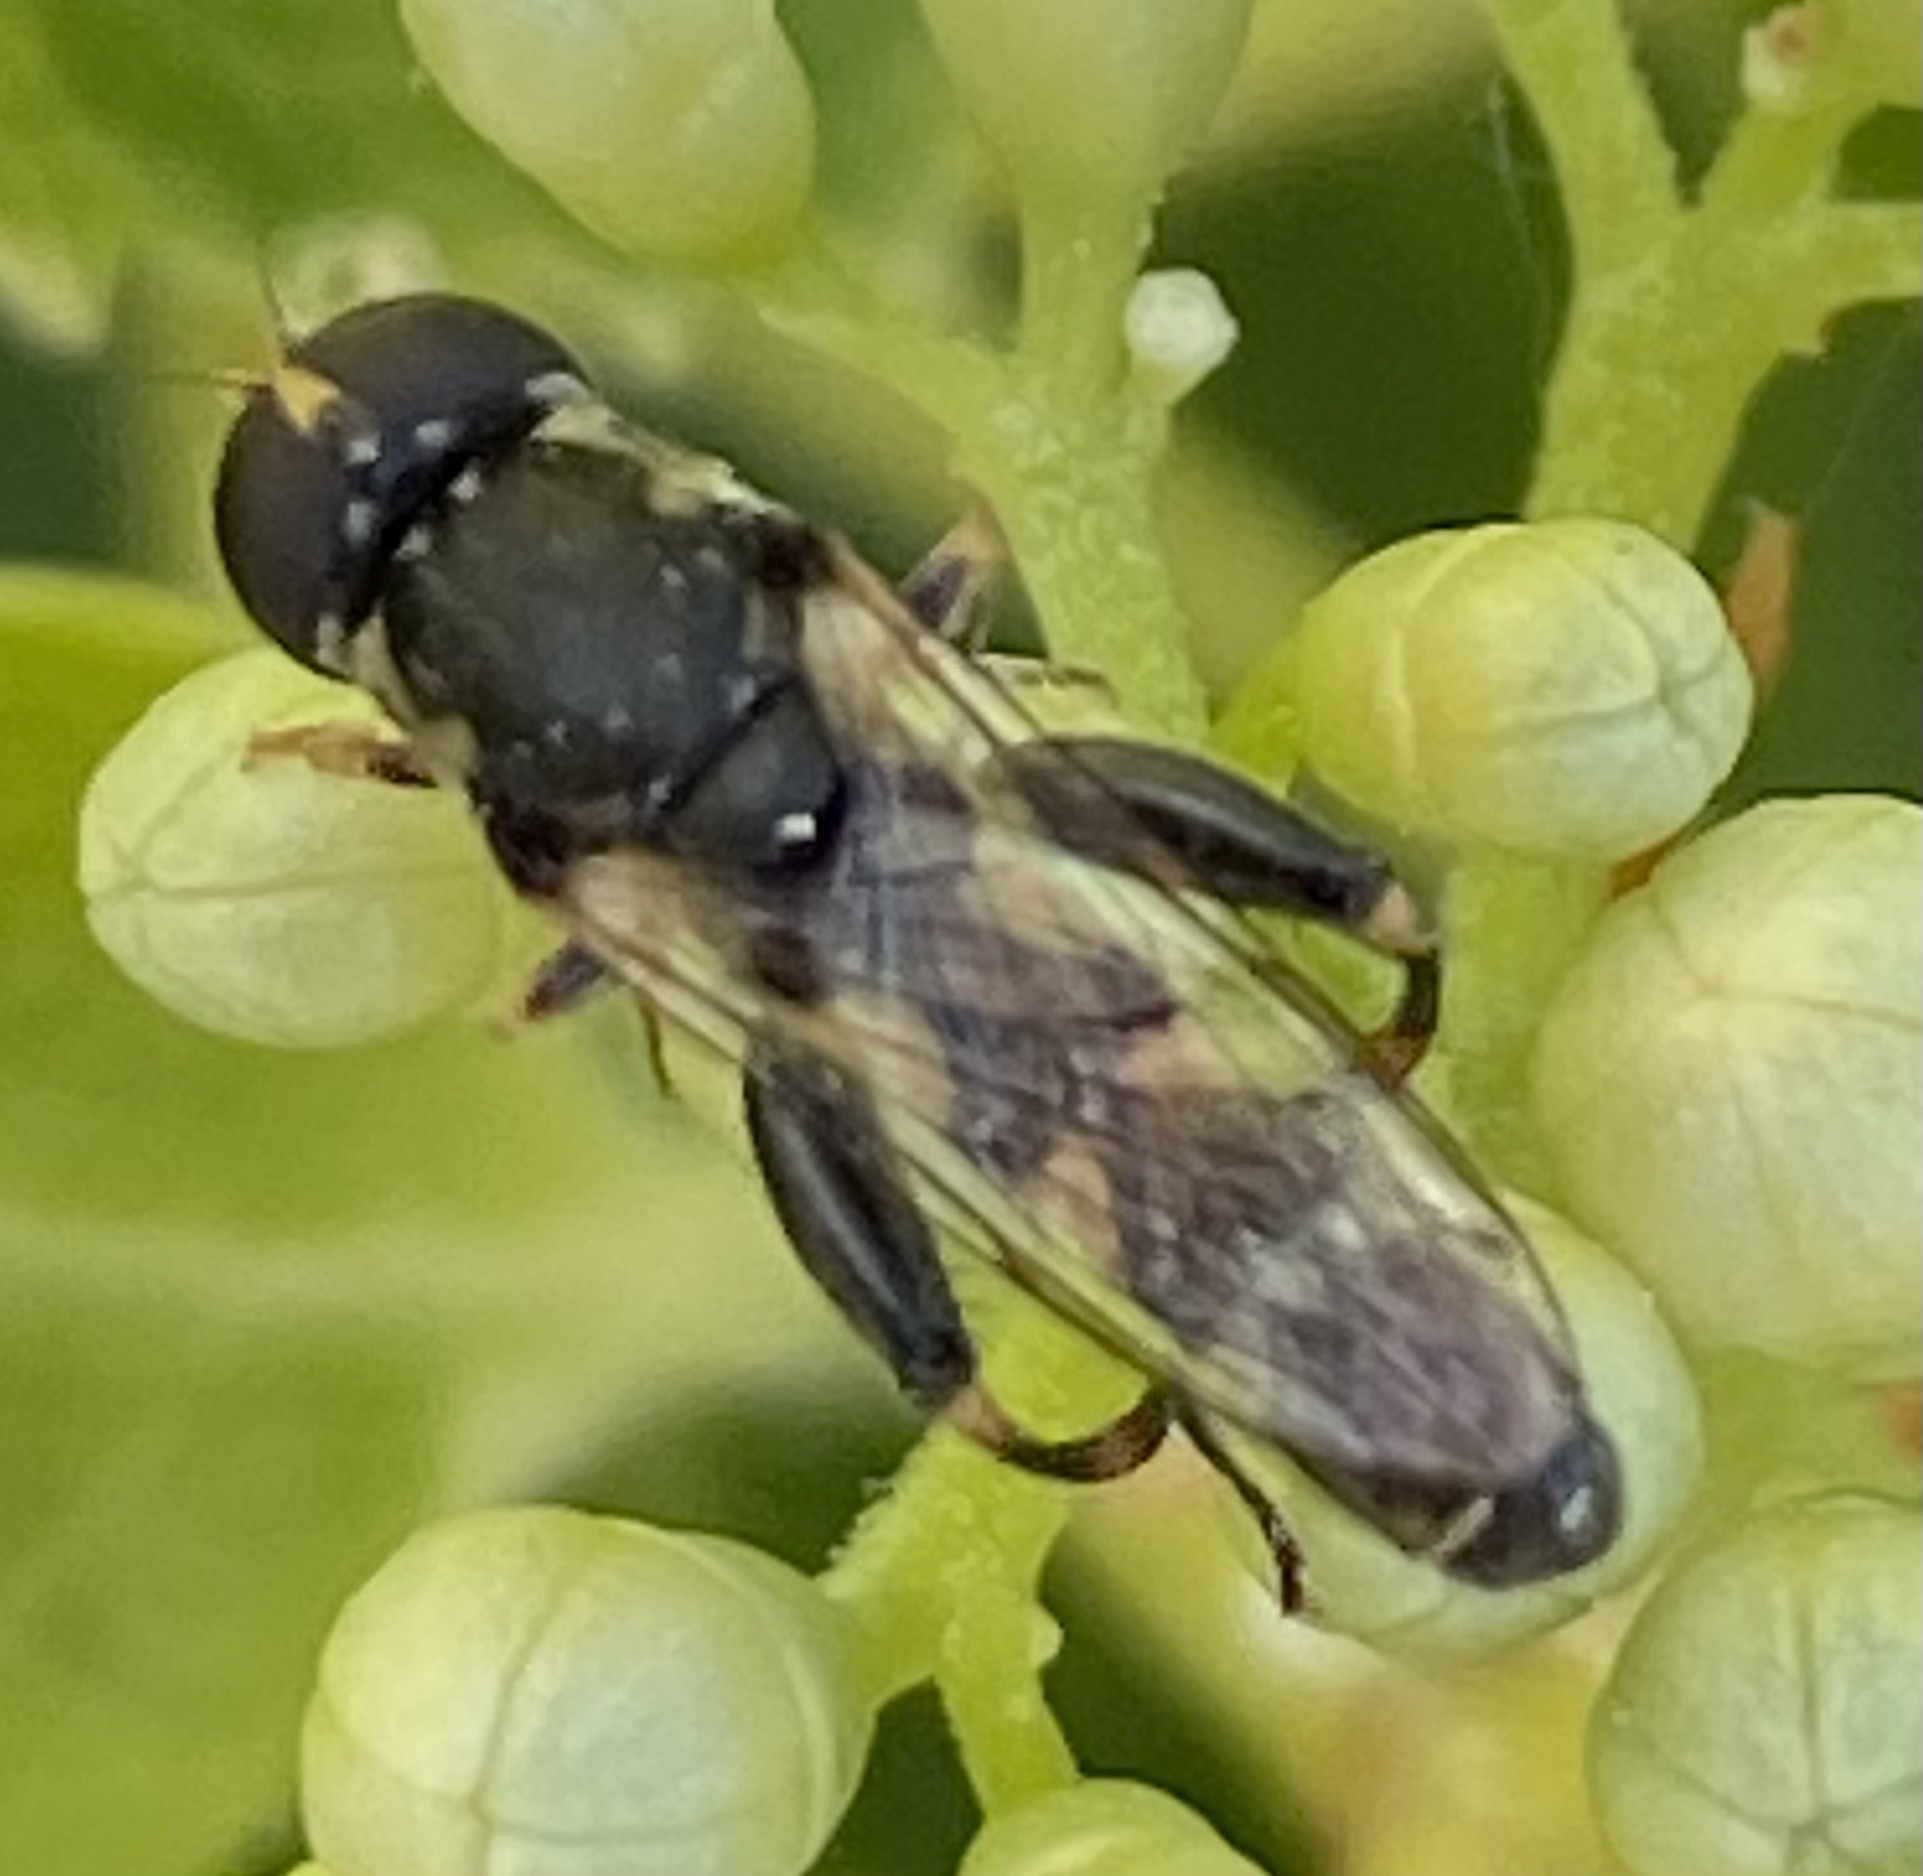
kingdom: Animalia
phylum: Arthropoda
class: Insecta
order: Diptera
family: Syrphidae
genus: Syritta
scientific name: Syritta pipiens
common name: Hover fly
